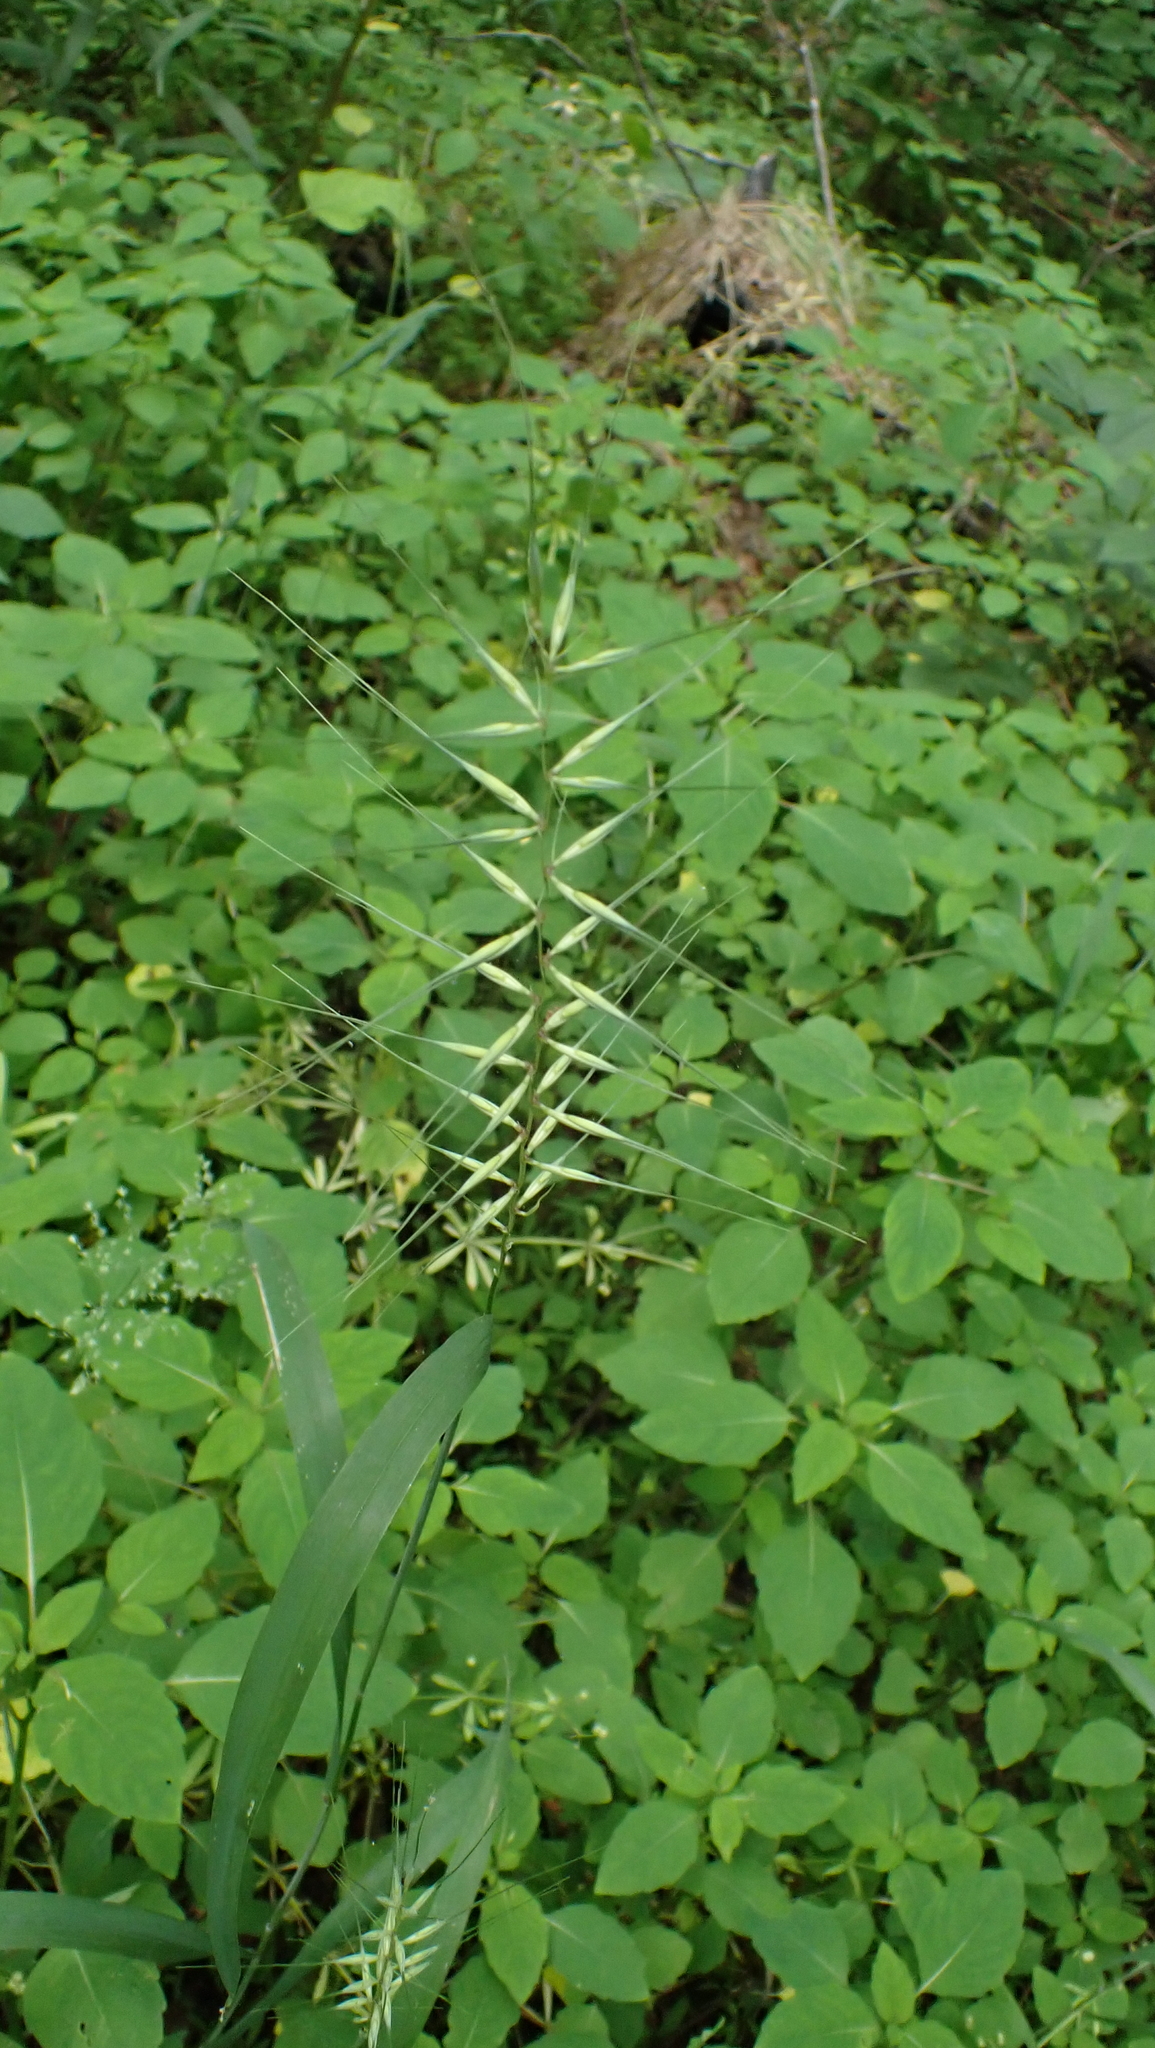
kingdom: Plantae
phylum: Tracheophyta
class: Liliopsida
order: Poales
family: Poaceae
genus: Elymus
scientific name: Elymus hystrix
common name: Bottlebrush grass
